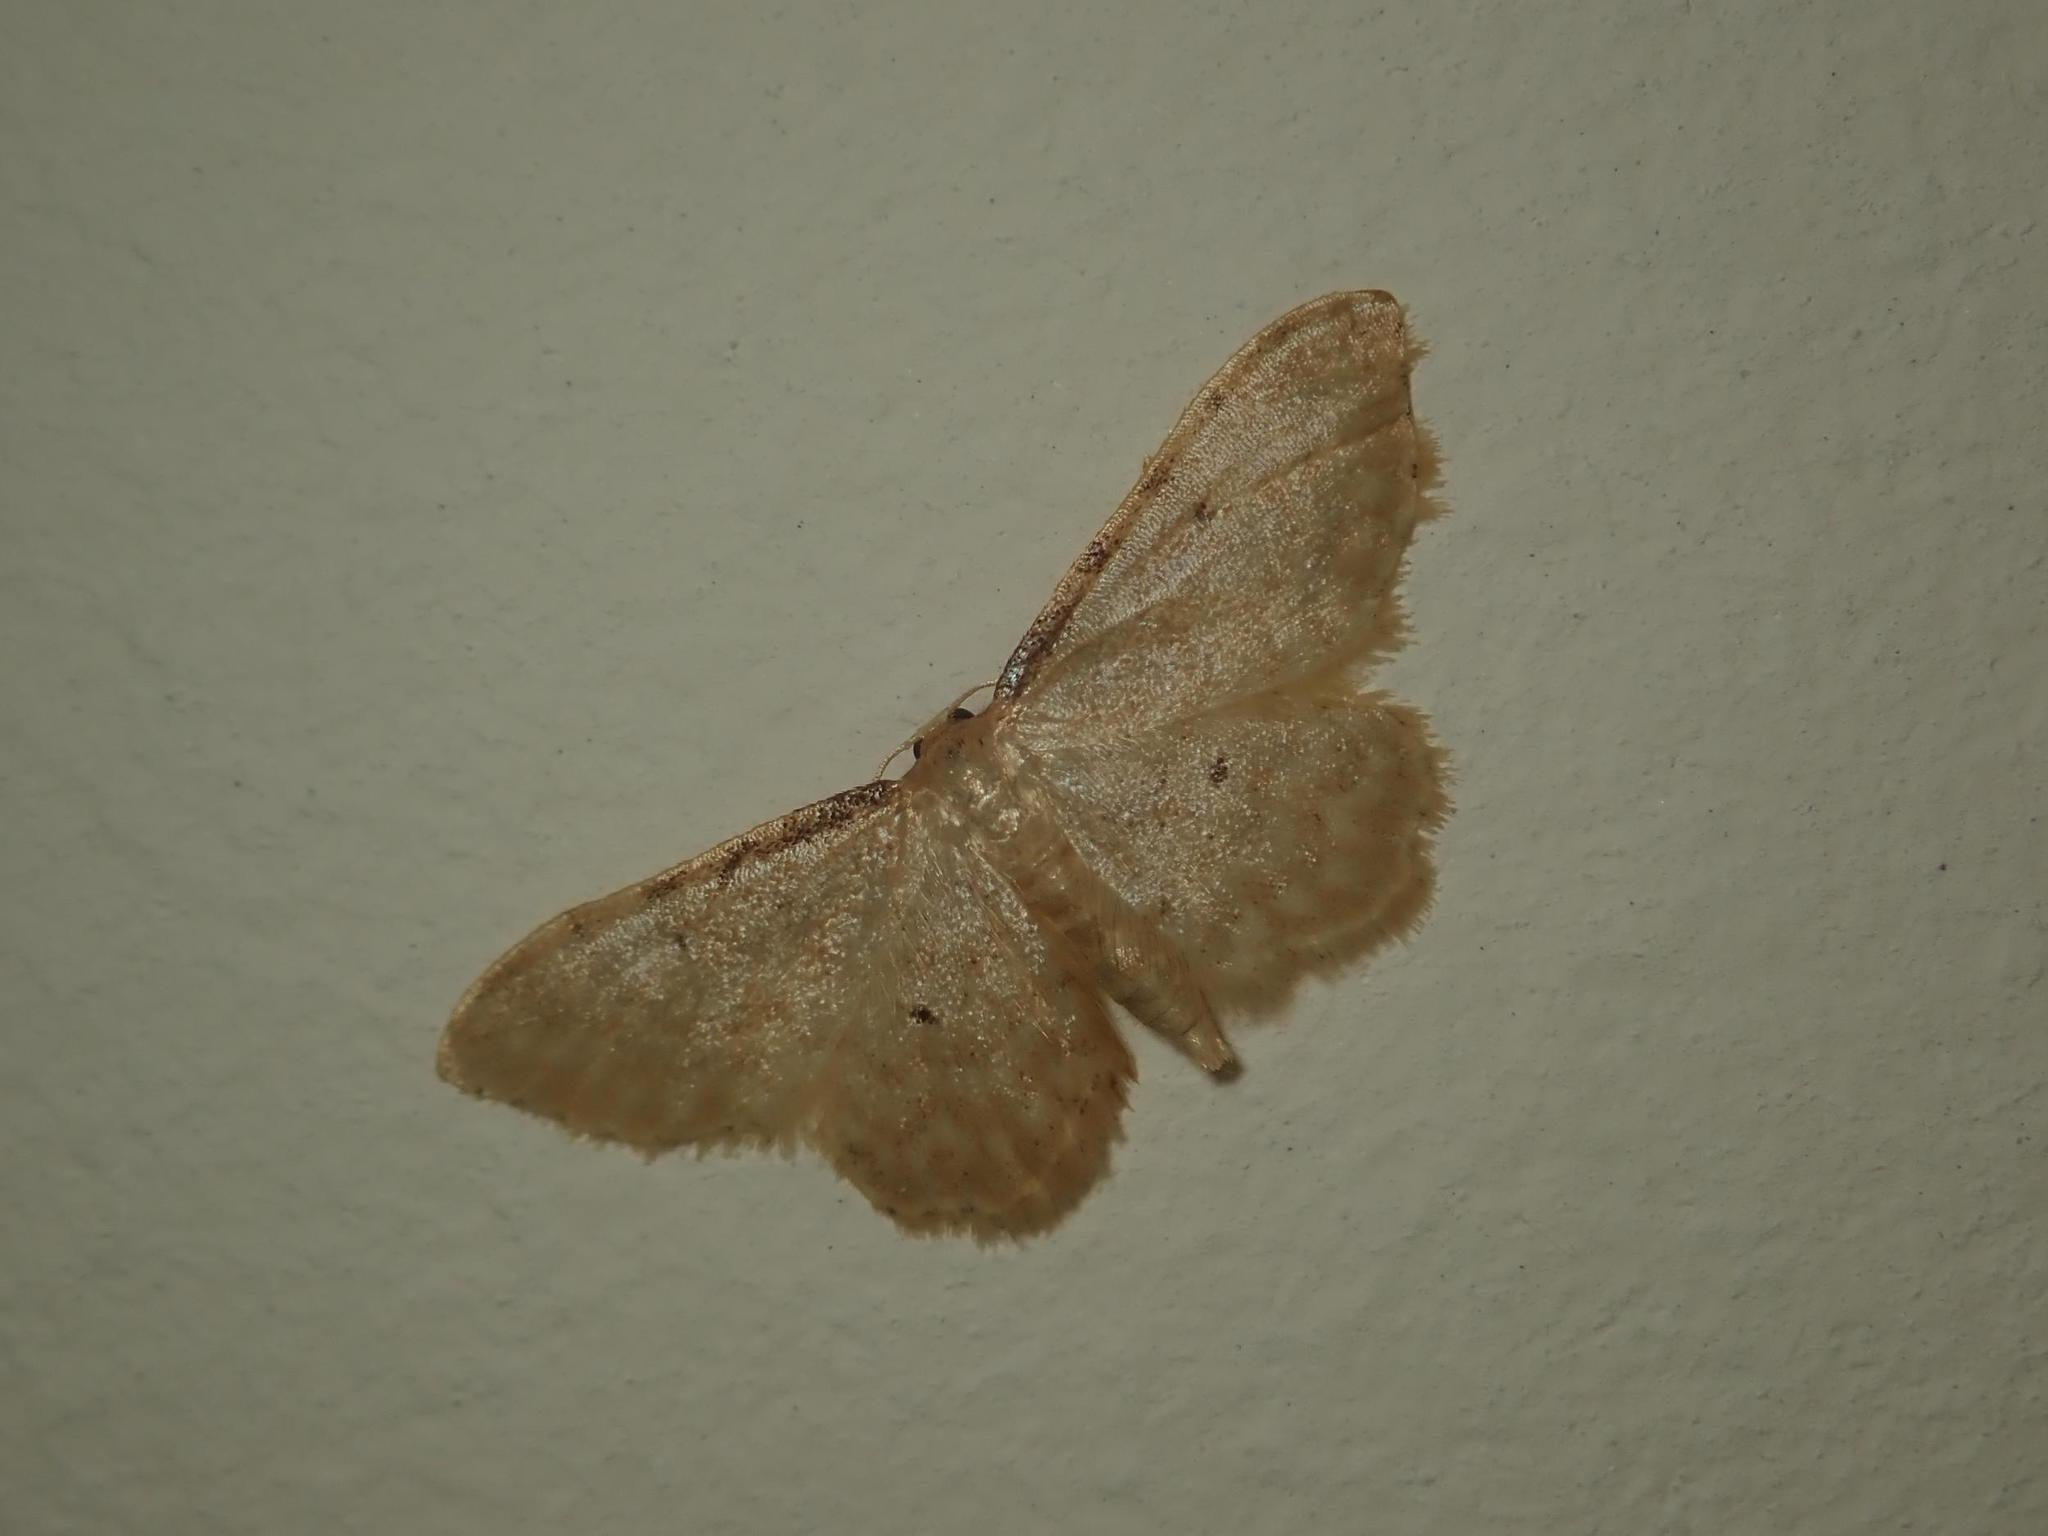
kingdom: Animalia
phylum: Arthropoda
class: Insecta
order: Lepidoptera
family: Geometridae
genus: Idaea
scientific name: Idaea fuscovenosa
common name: Dwarf cream wave
